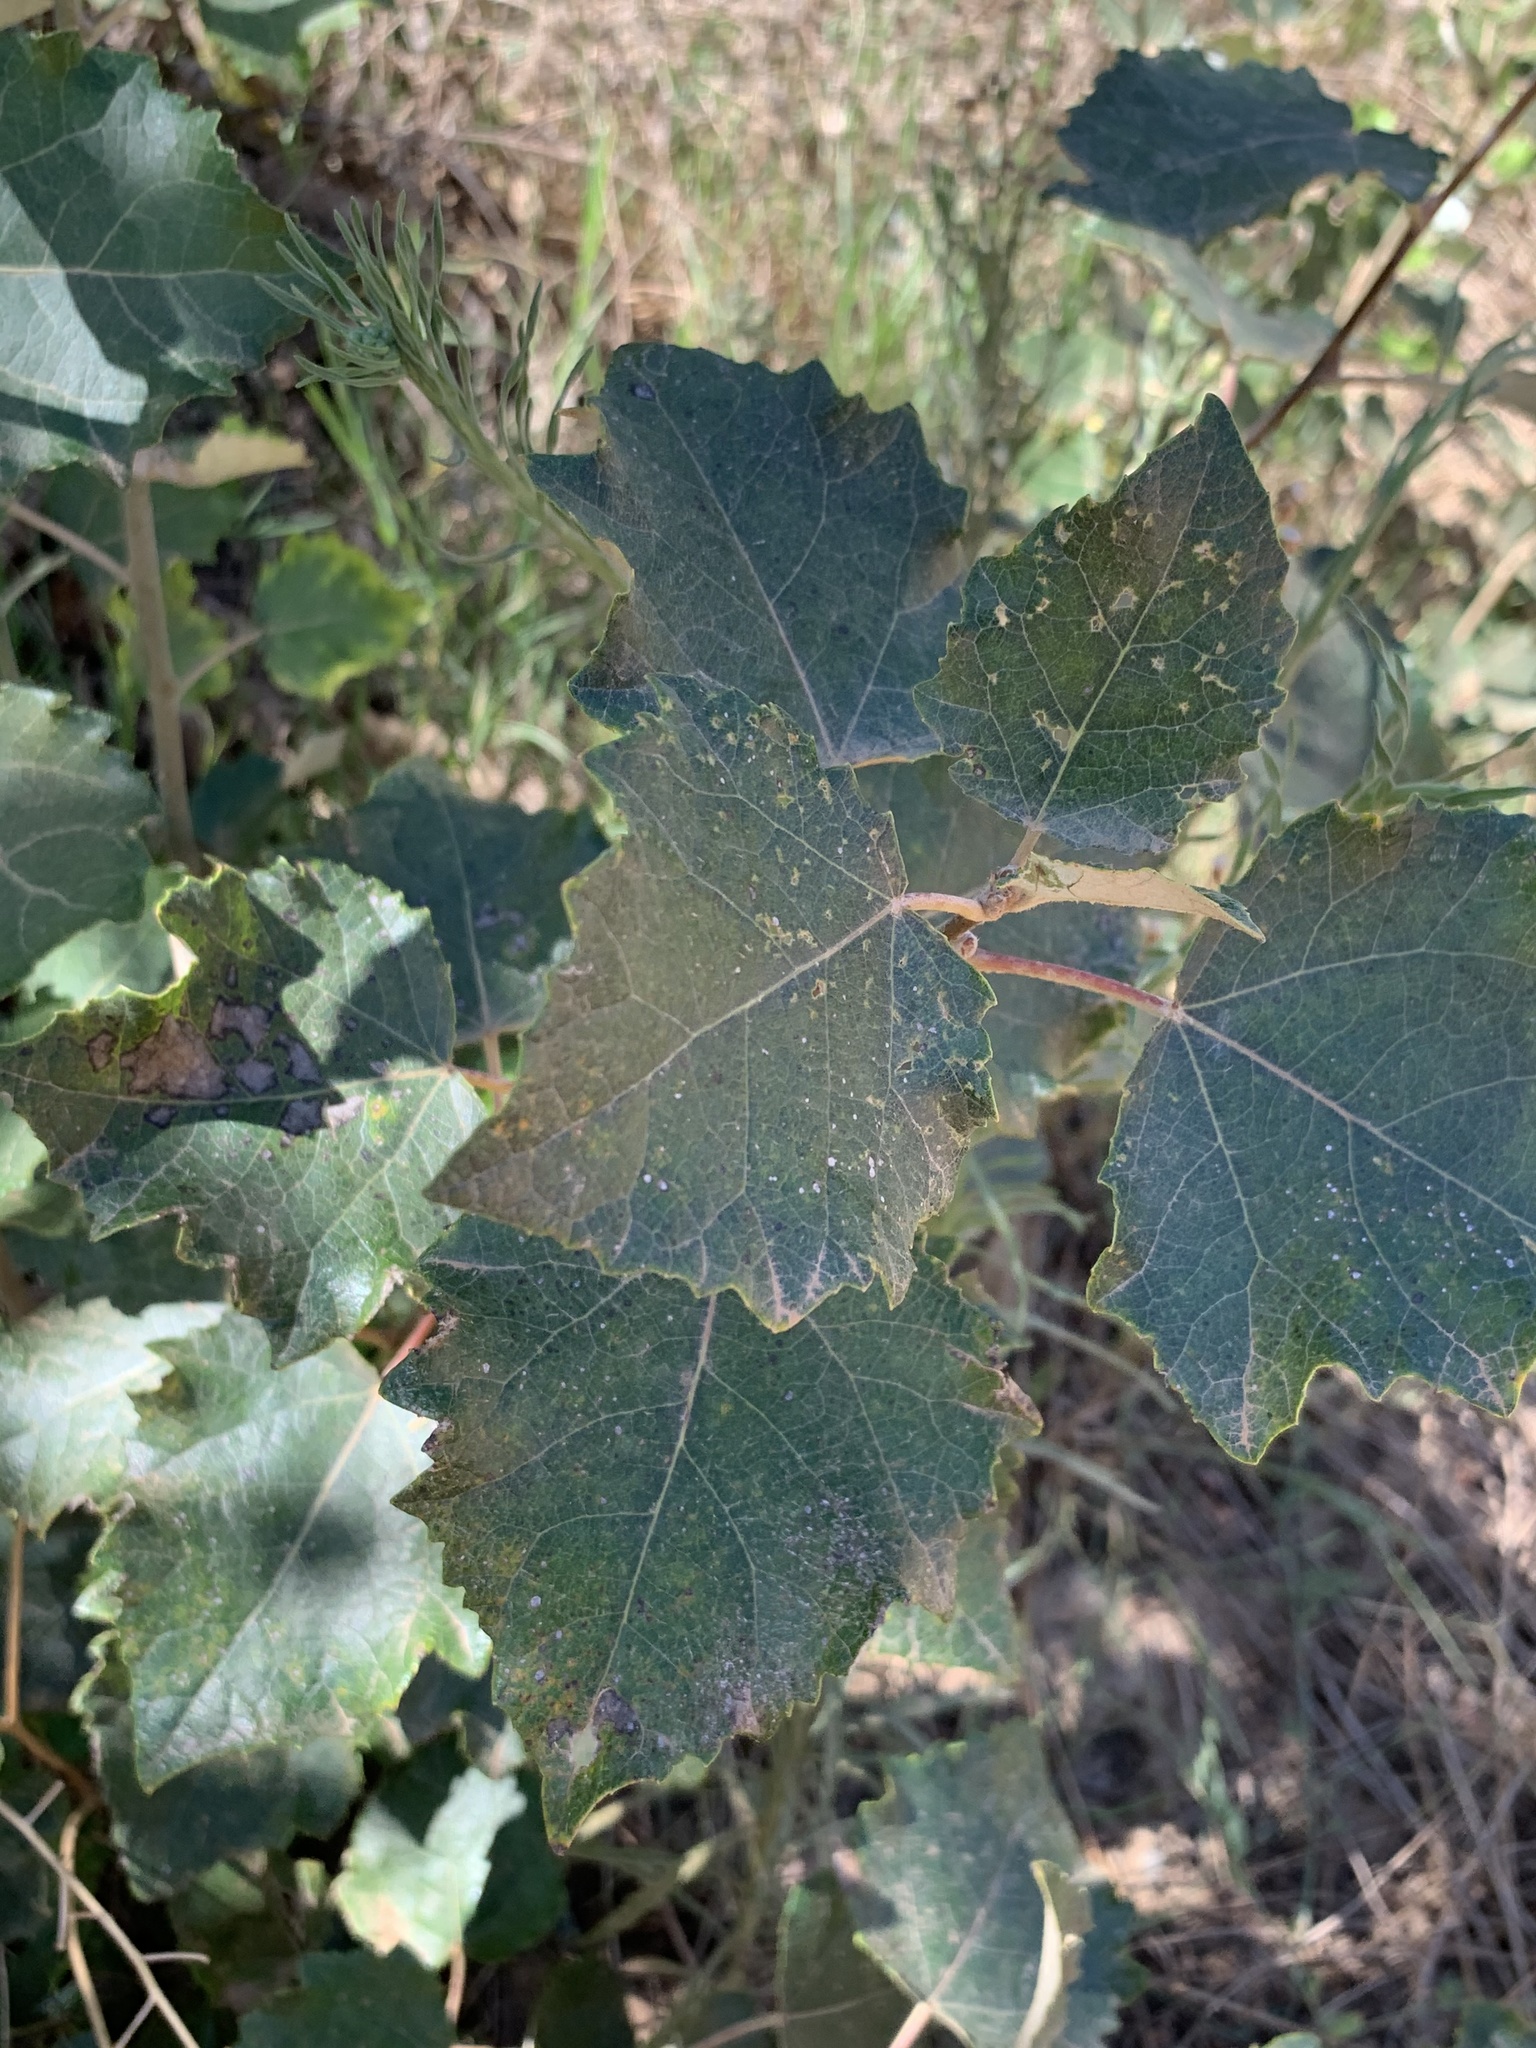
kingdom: Plantae
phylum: Tracheophyta
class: Magnoliopsida
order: Malpighiales
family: Salicaceae
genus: Populus
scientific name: Populus canescens
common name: Gray poplar
